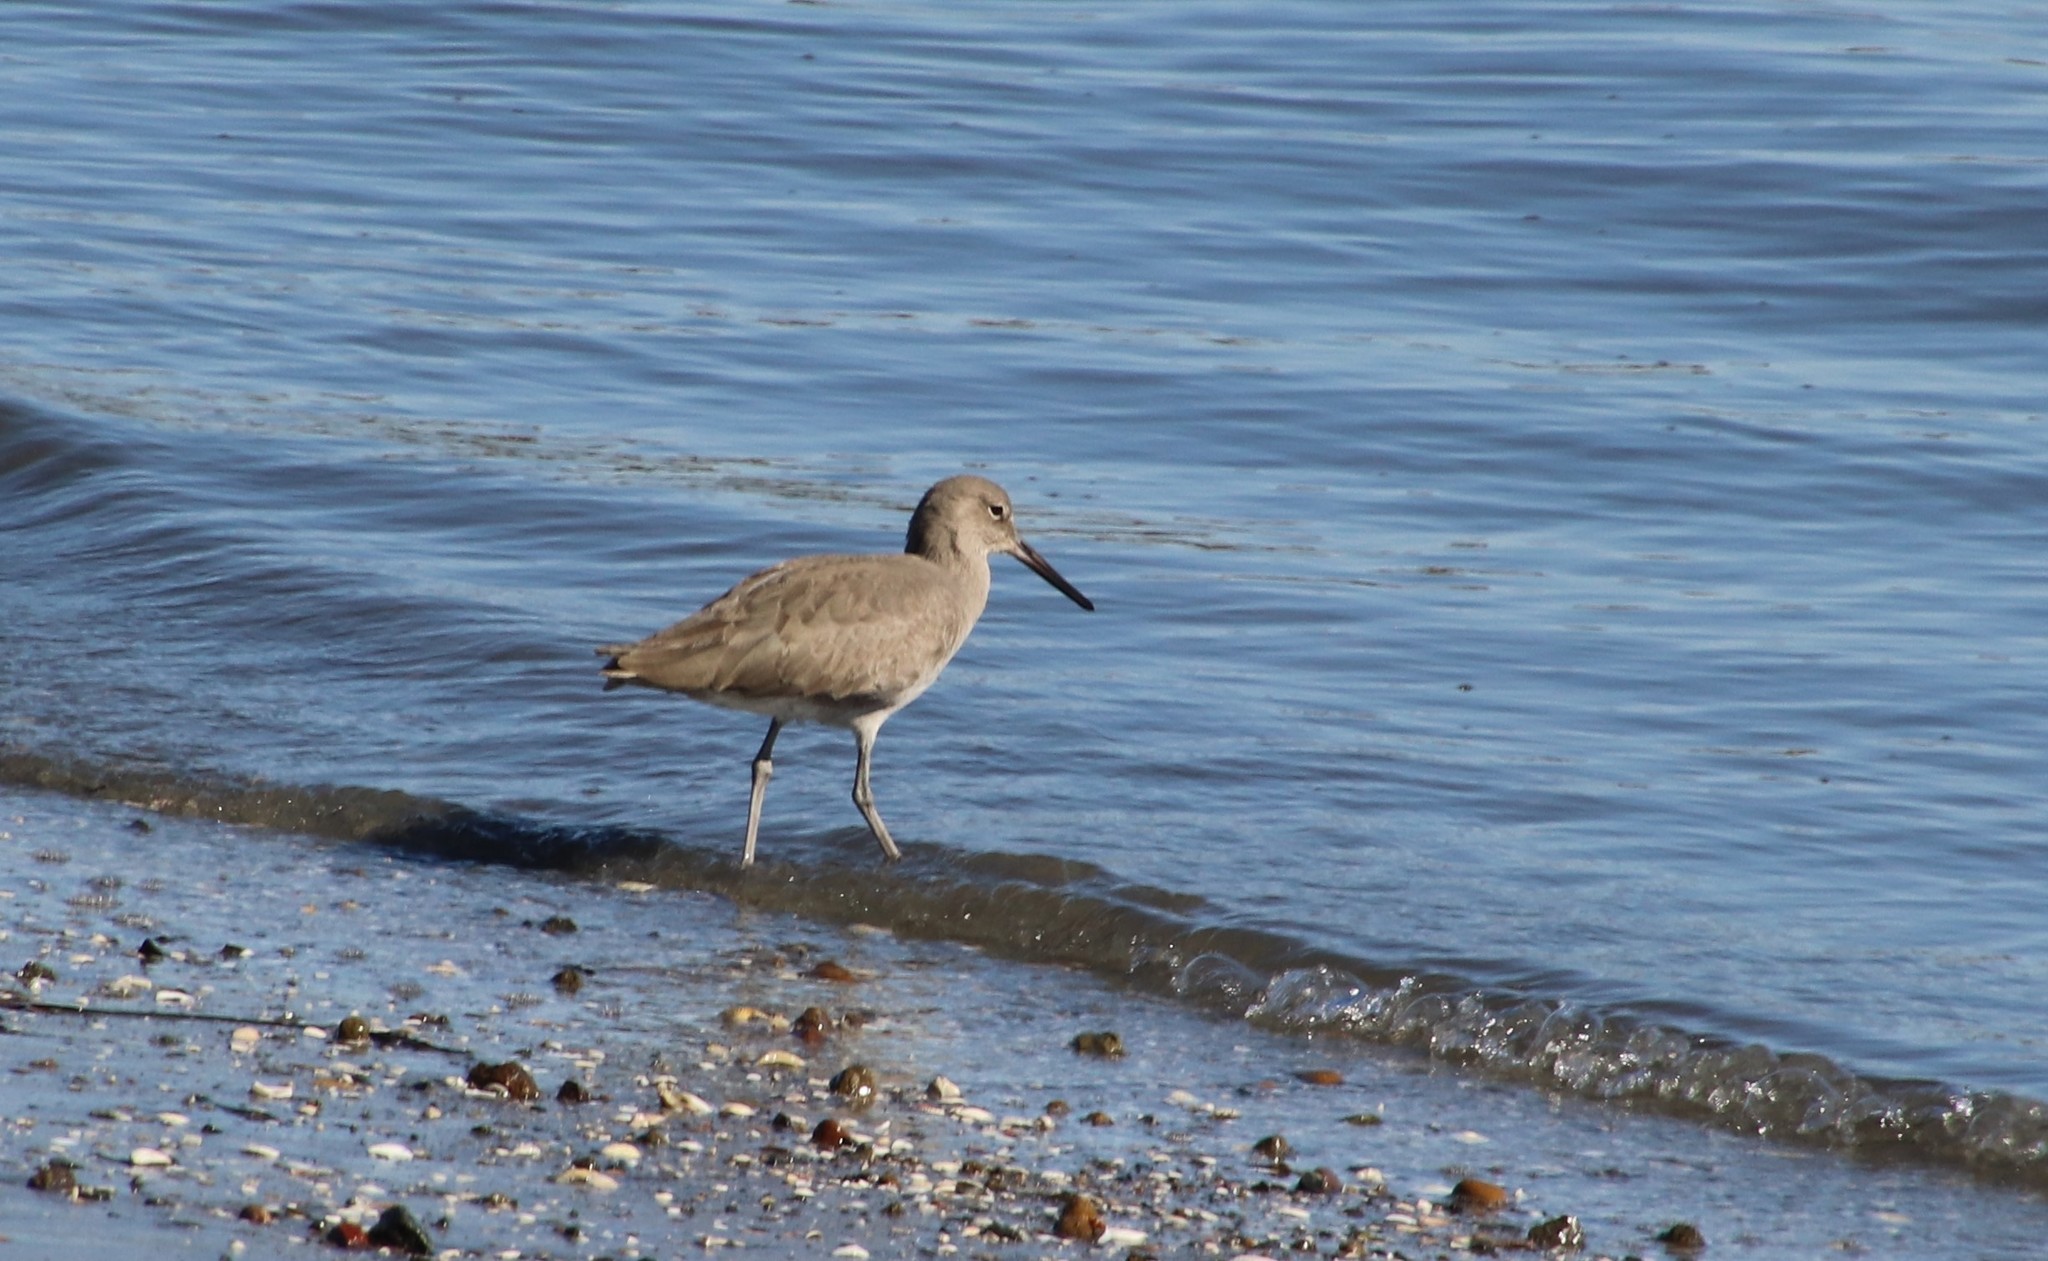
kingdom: Animalia
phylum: Chordata
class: Aves
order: Charadriiformes
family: Scolopacidae
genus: Tringa
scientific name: Tringa semipalmata
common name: Willet
